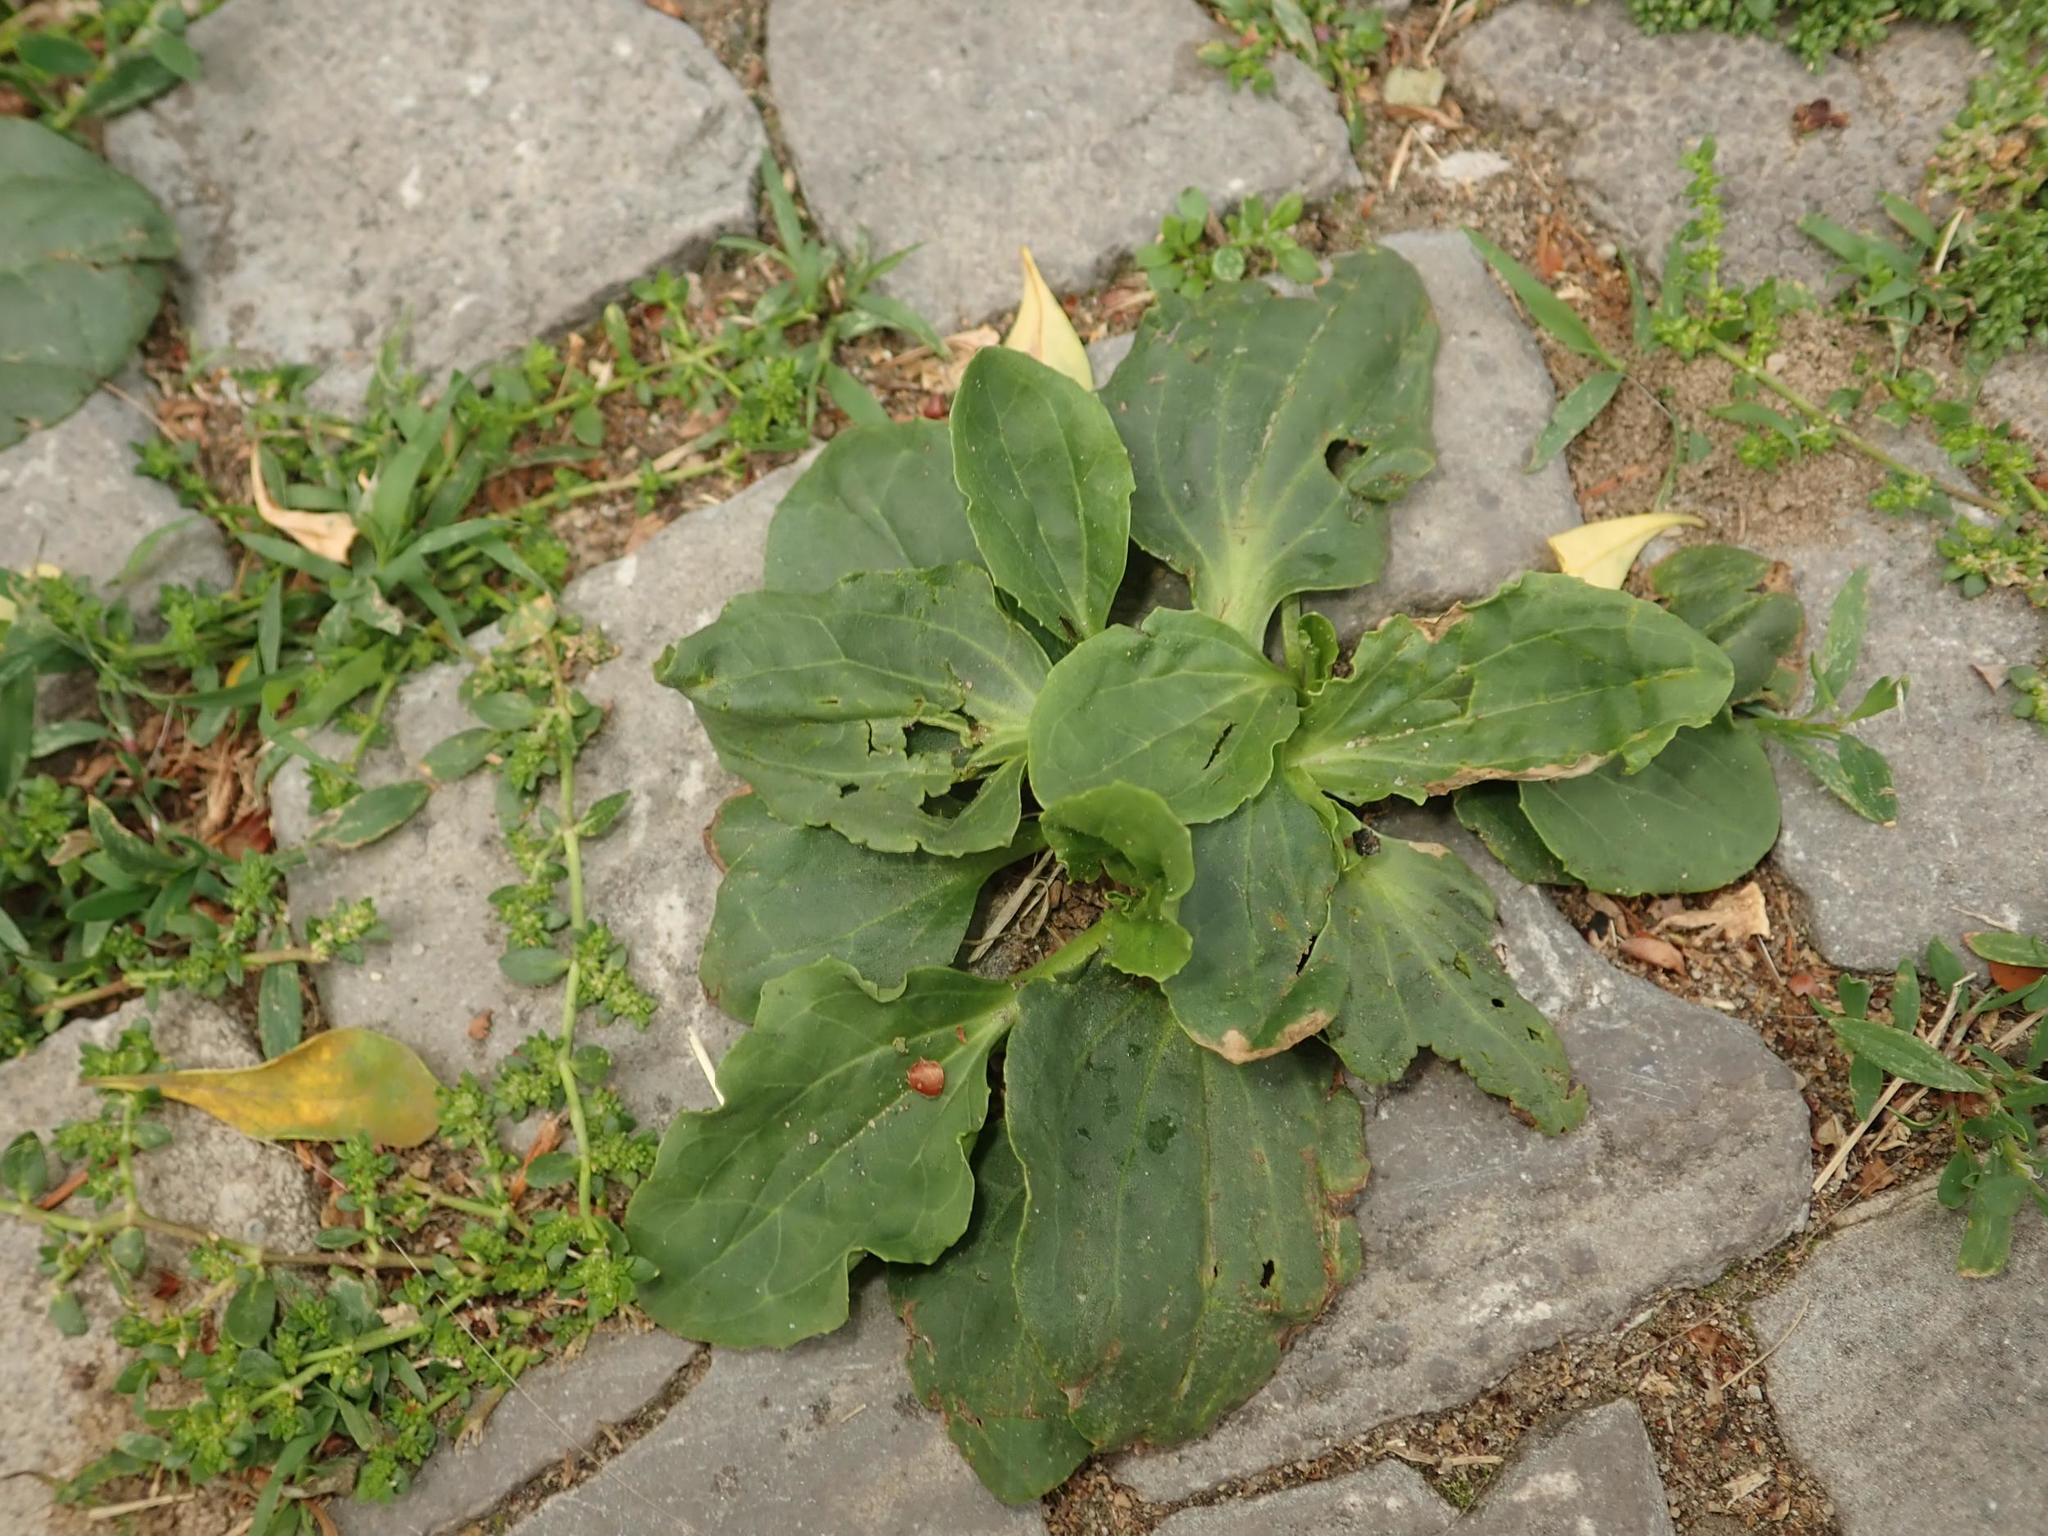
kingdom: Plantae
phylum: Tracheophyta
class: Magnoliopsida
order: Lamiales
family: Plantaginaceae
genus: Plantago
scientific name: Plantago major
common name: Common plantain
